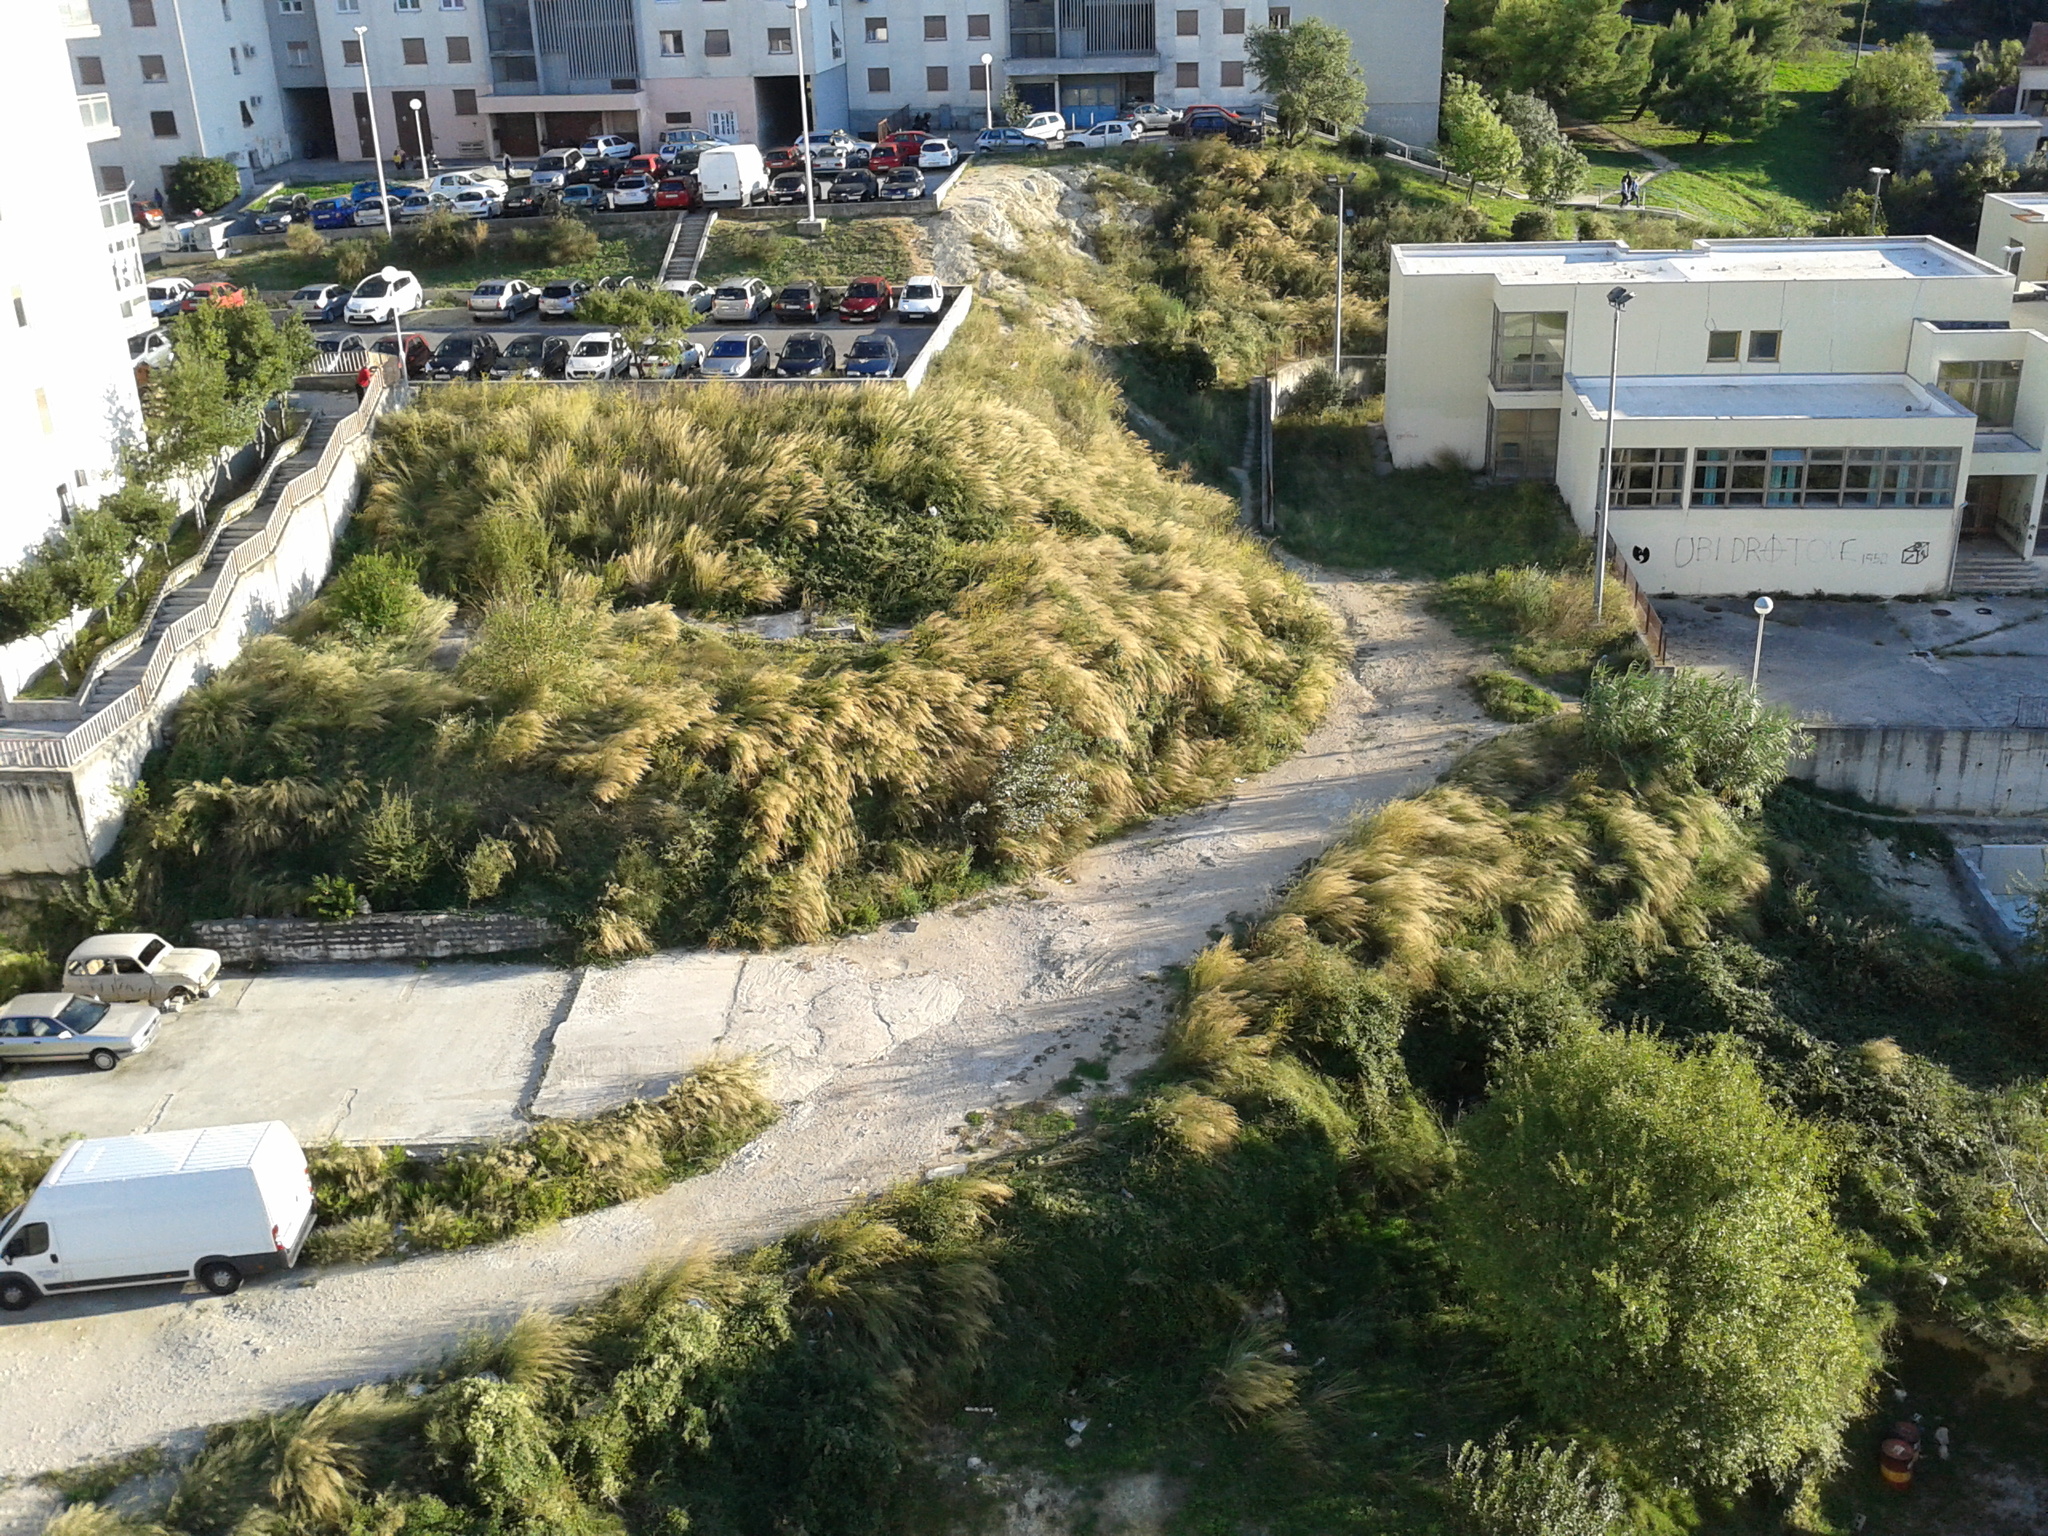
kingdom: Plantae
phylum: Tracheophyta
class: Liliopsida
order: Poales
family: Poaceae
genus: Oloptum
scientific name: Oloptum miliaceum
